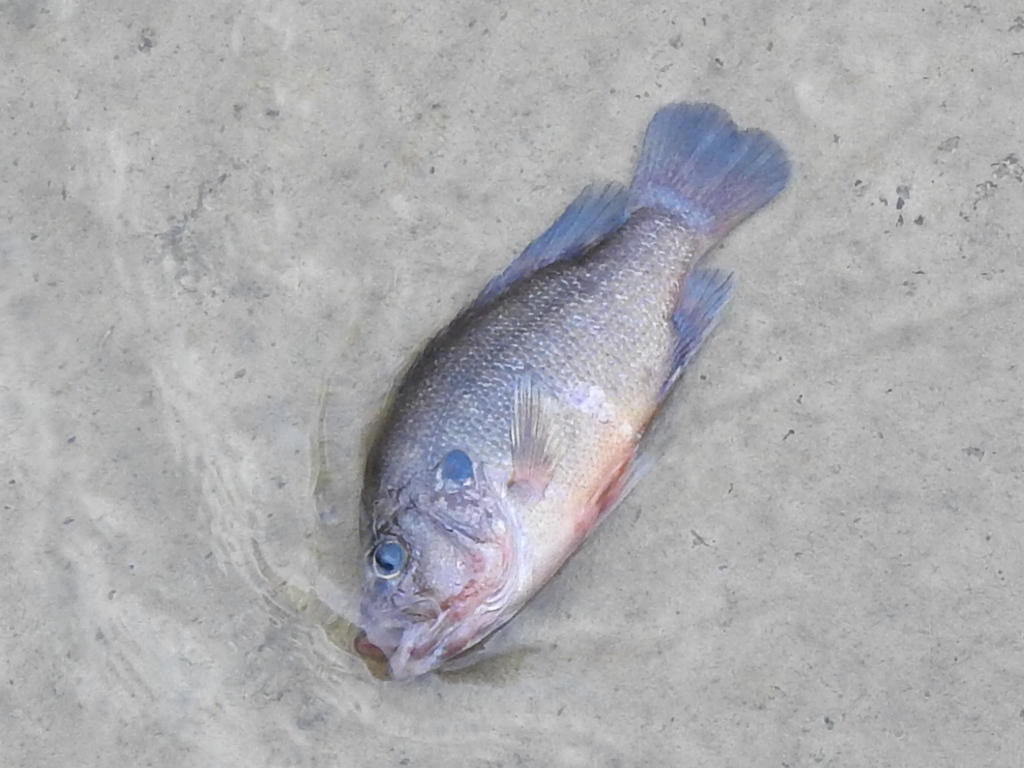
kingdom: Animalia
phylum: Chordata
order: Perciformes
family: Centrarchidae
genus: Lepomis
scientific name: Lepomis cyanellus
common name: Green sunfish
